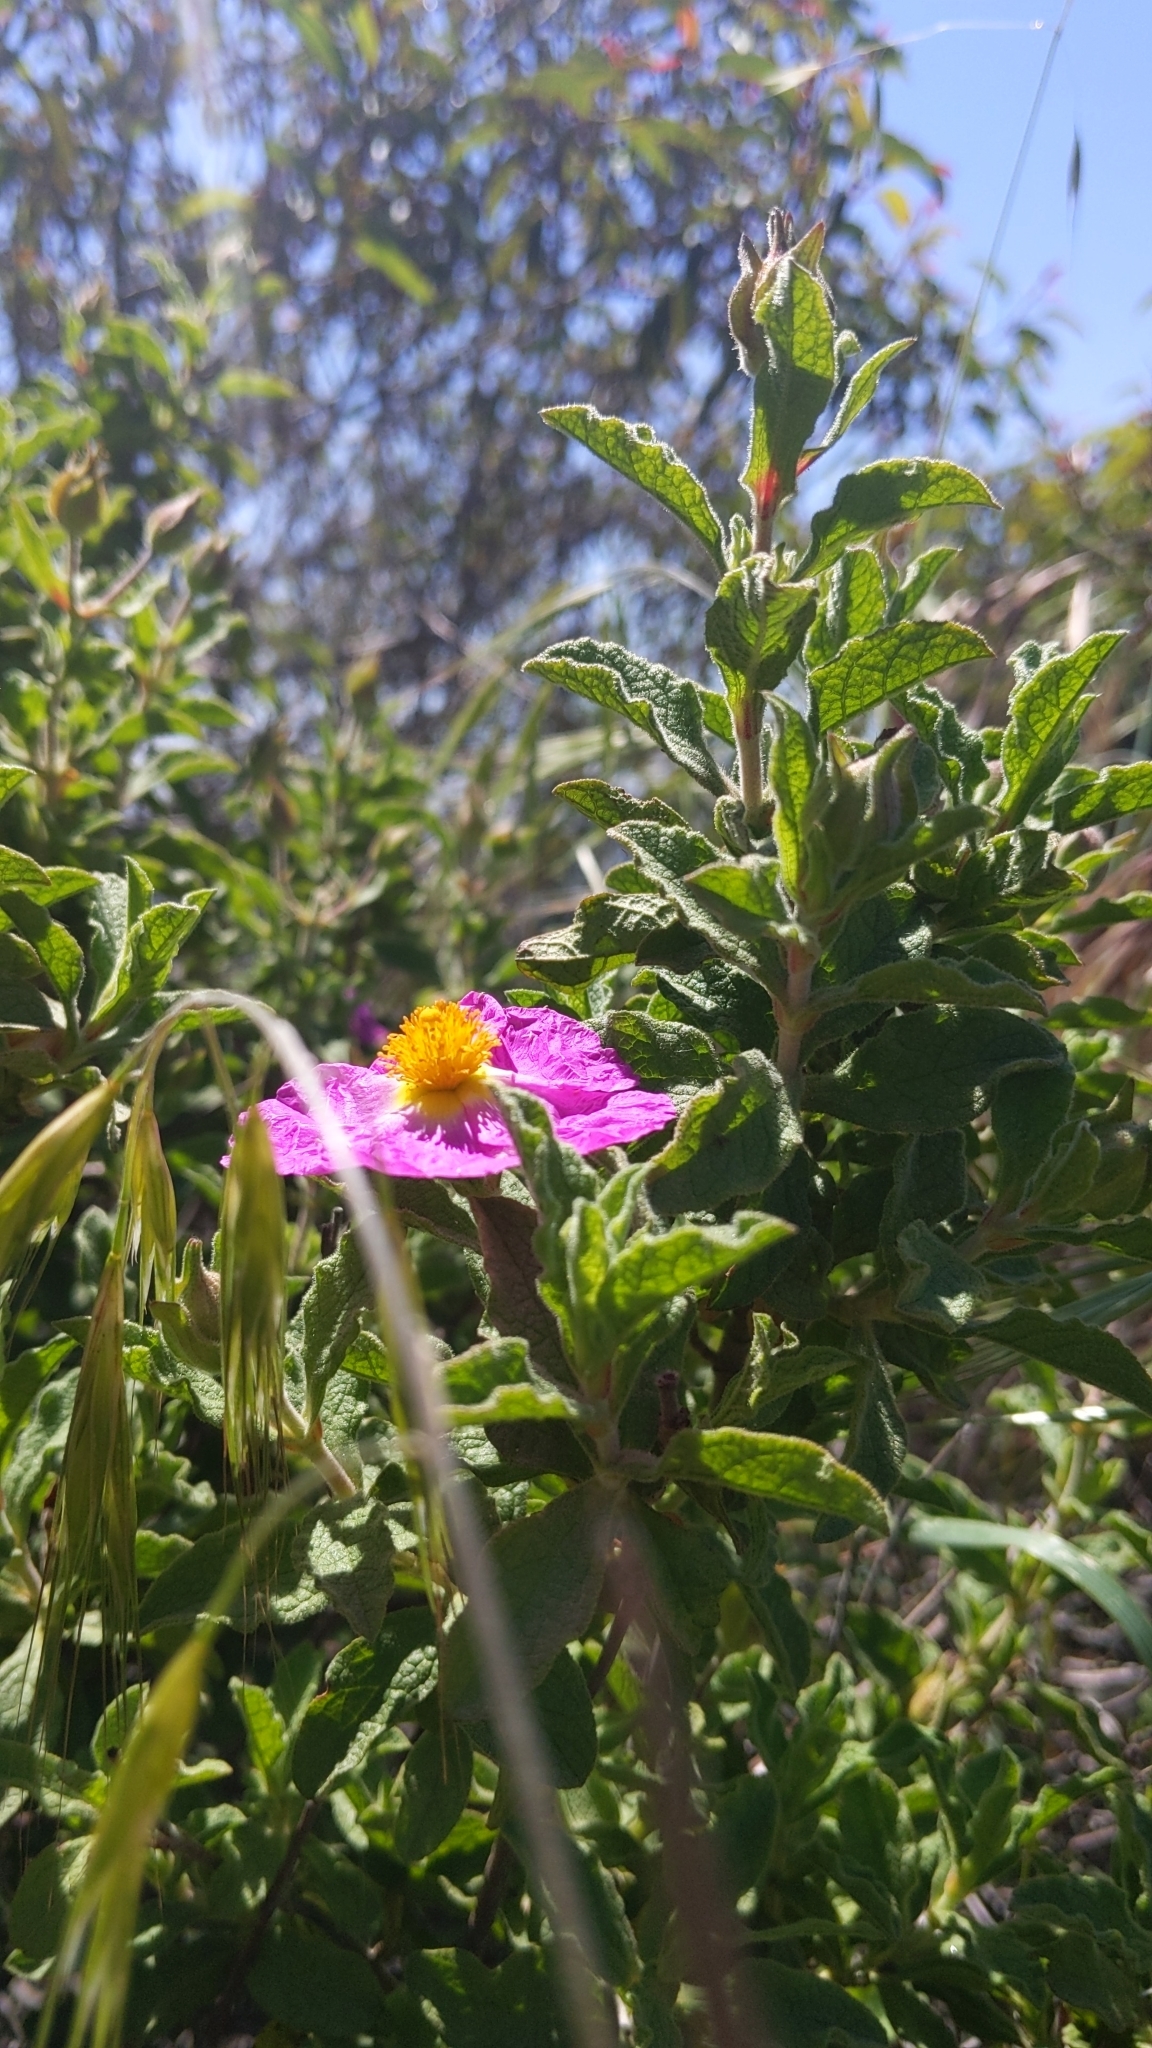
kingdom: Plantae
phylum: Tracheophyta
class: Magnoliopsida
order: Malvales
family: Cistaceae
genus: Cistus
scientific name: Cistus creticus
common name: Cretan rockrose
